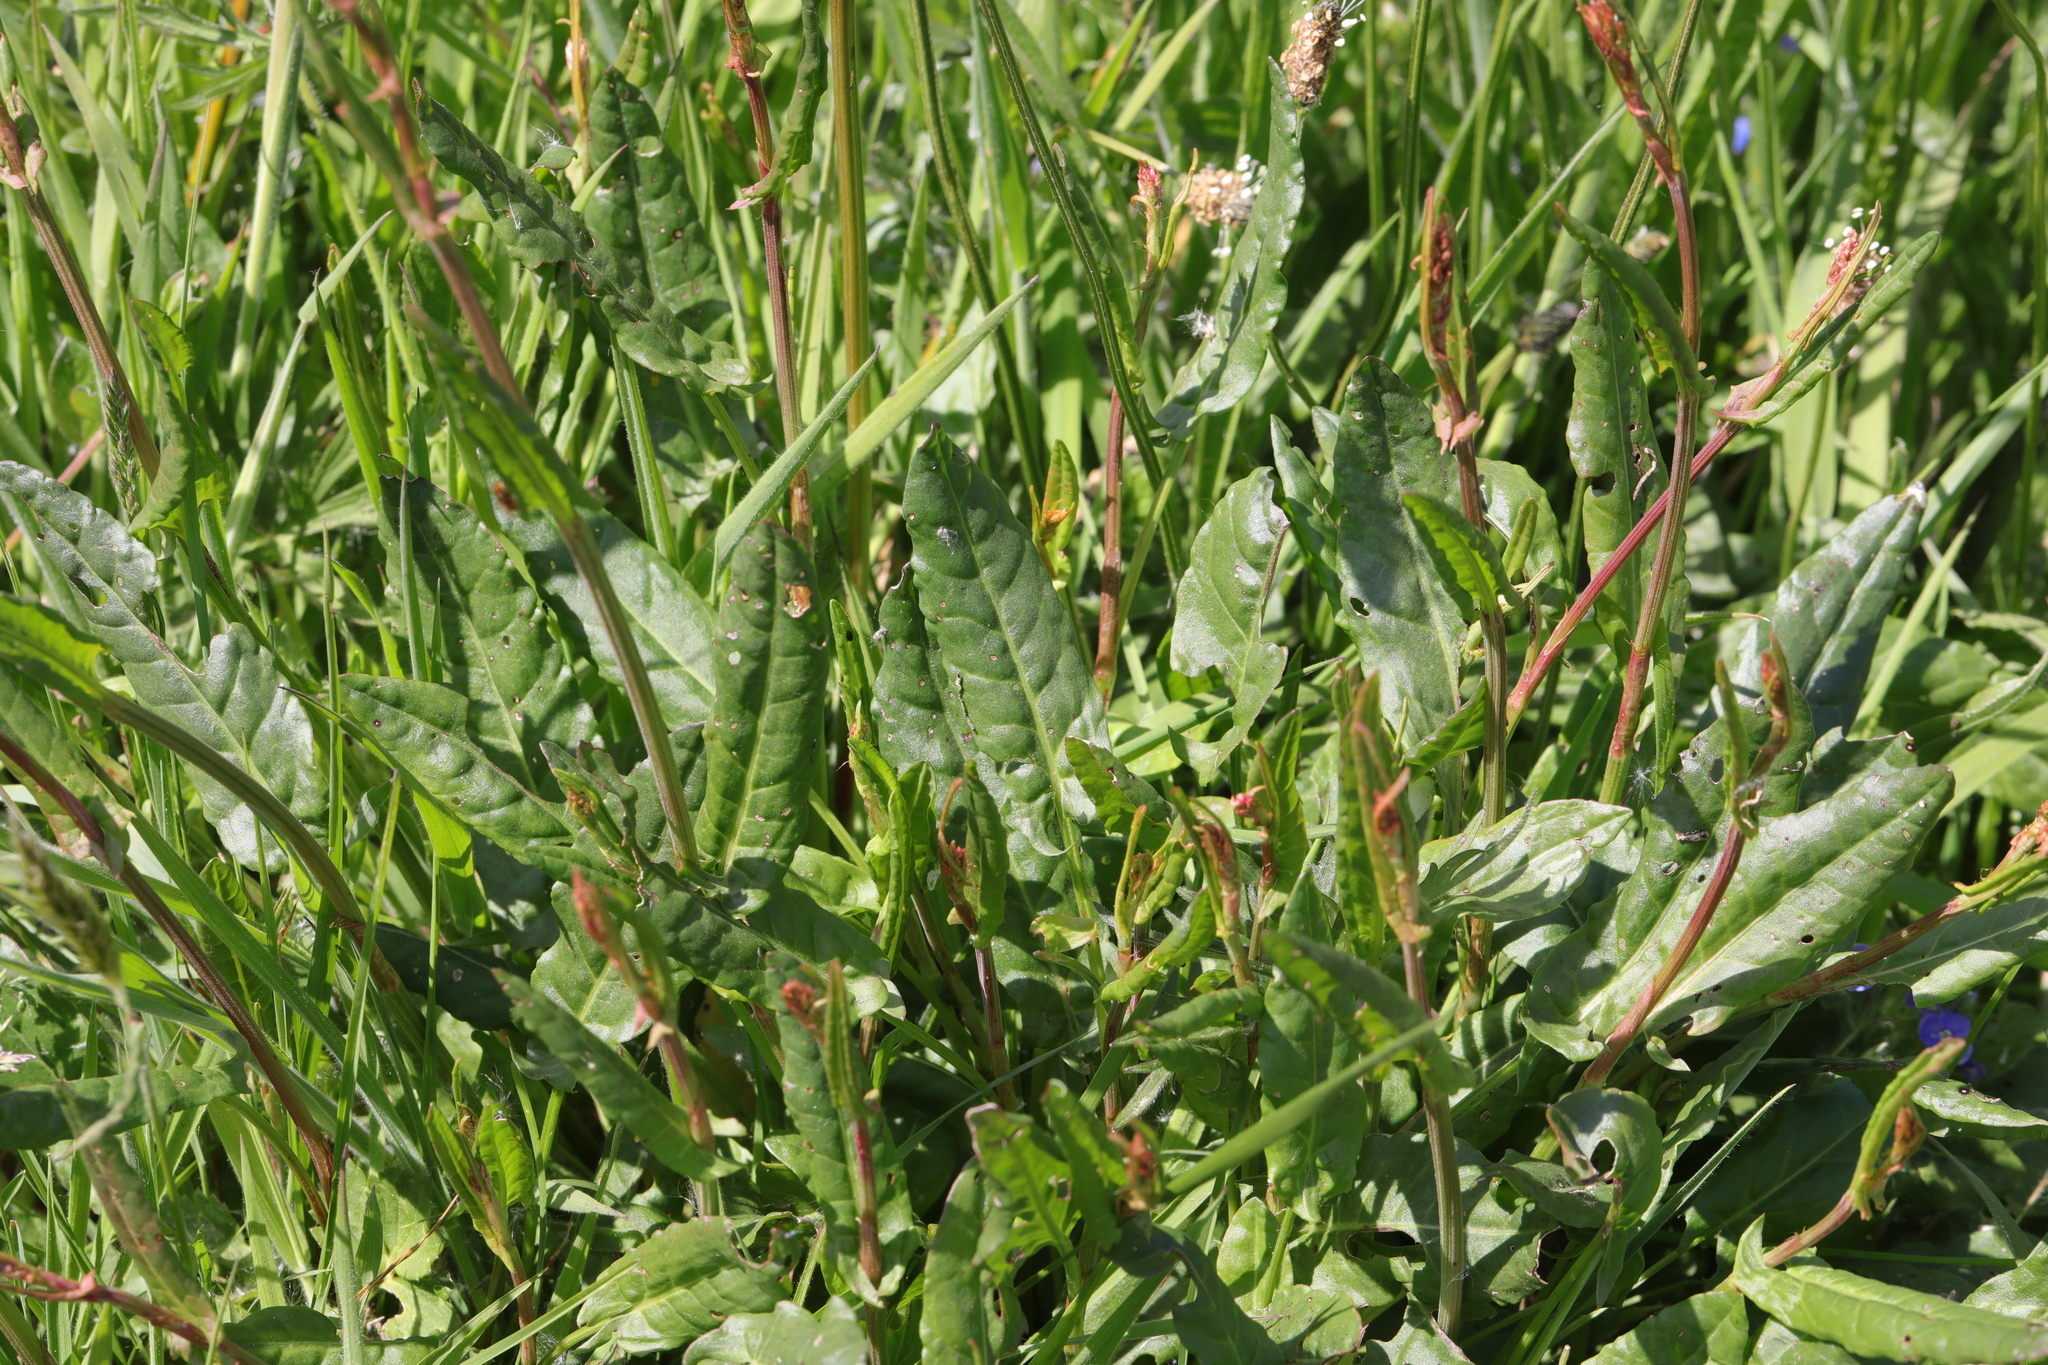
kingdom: Plantae
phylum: Tracheophyta
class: Magnoliopsida
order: Caryophyllales
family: Polygonaceae
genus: Rumex
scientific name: Rumex acetosa
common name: Garden sorrel
